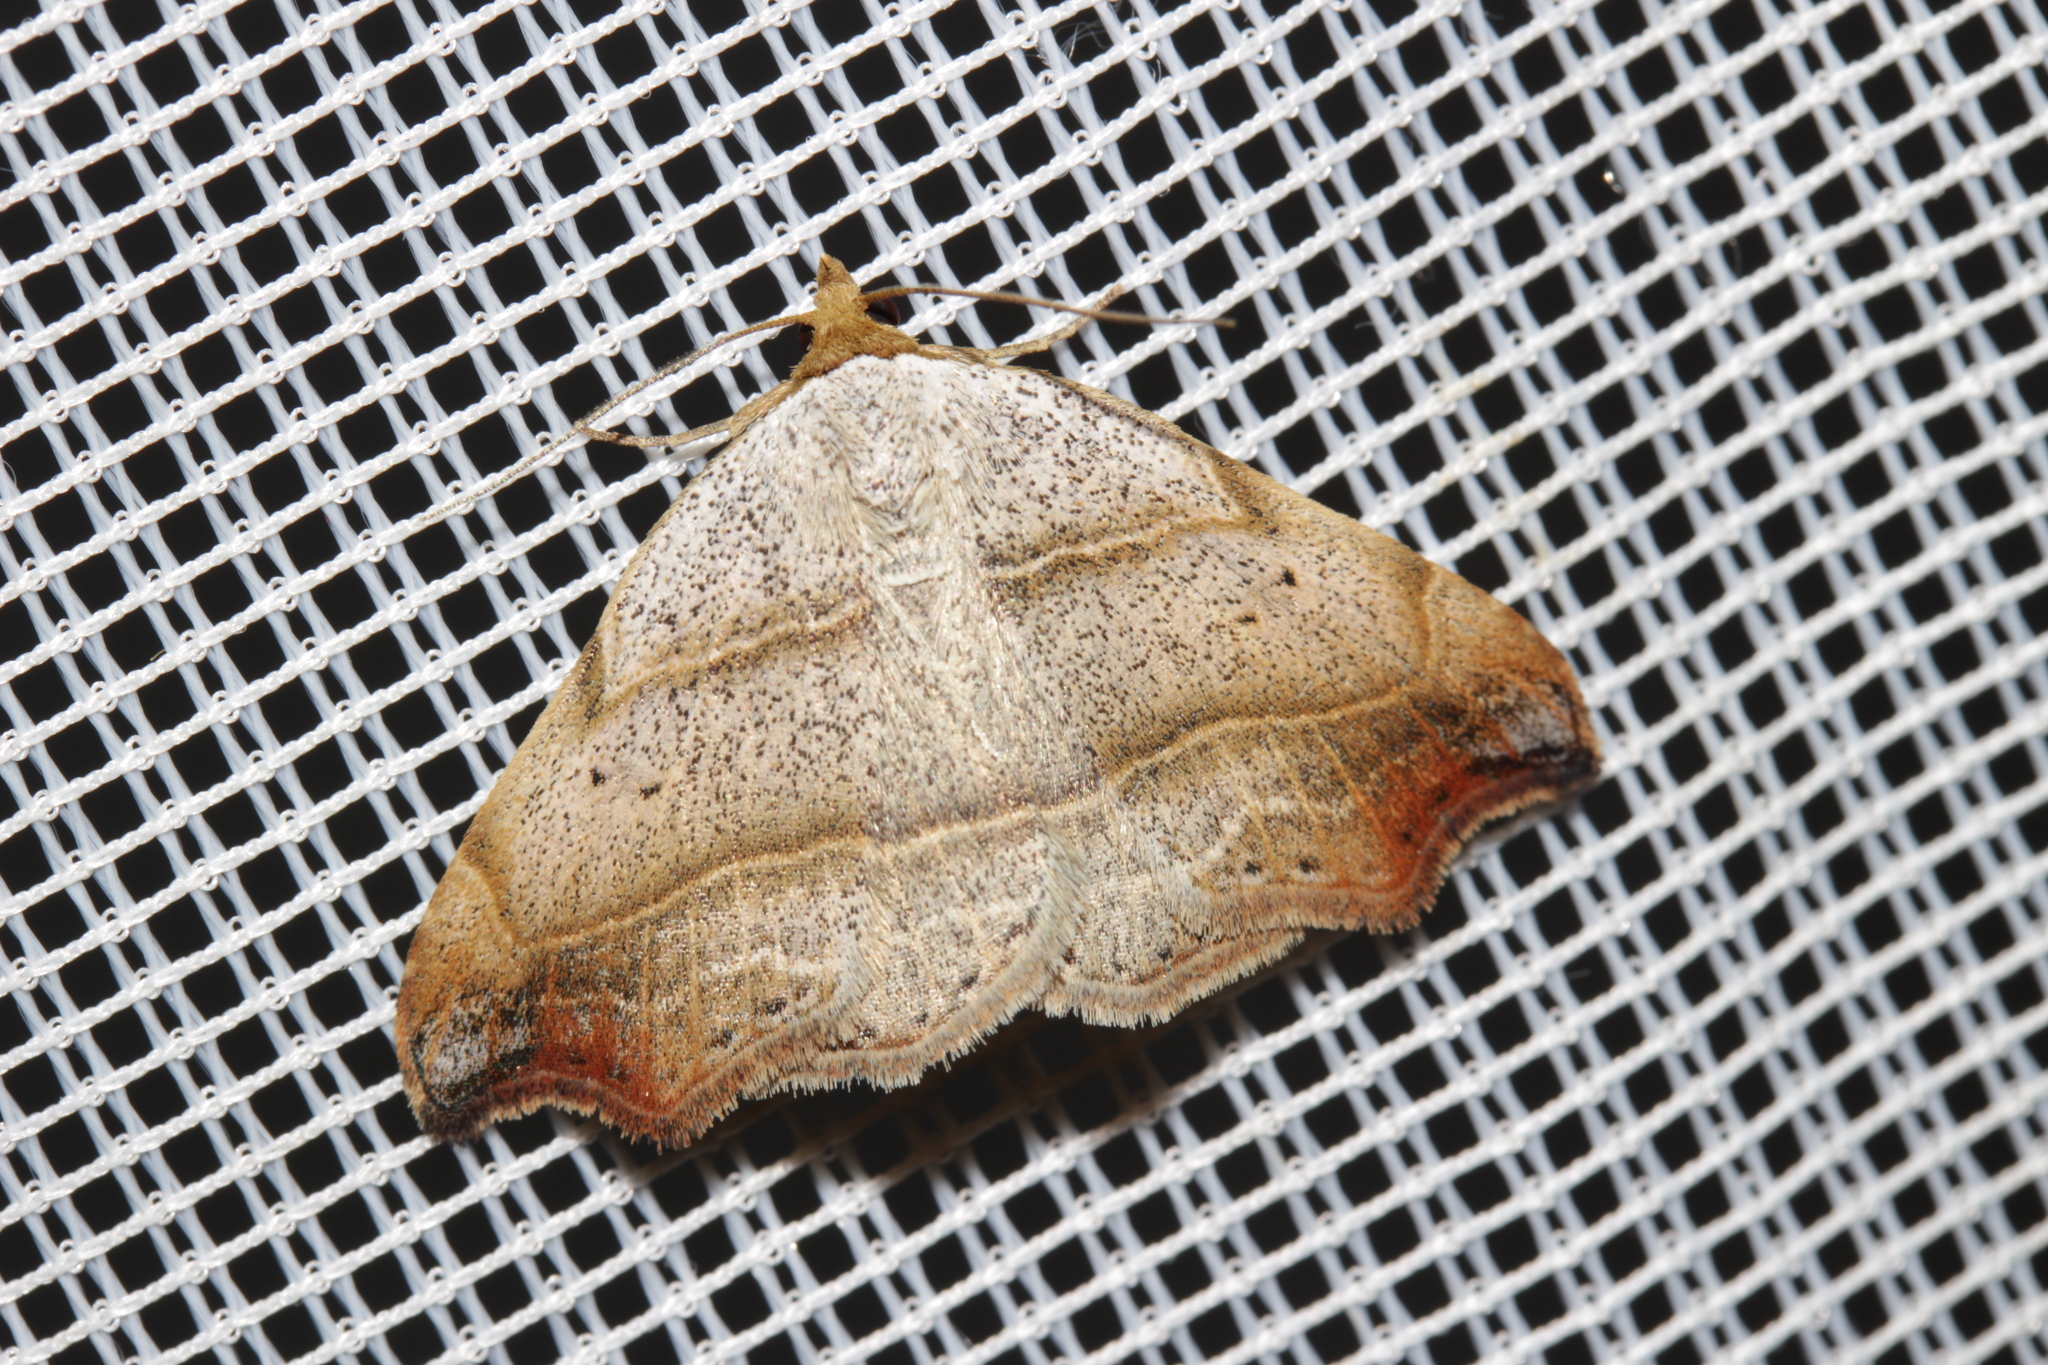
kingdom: Animalia
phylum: Arthropoda
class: Insecta
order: Lepidoptera
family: Erebidae
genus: Laspeyria
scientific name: Laspeyria flexula
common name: Beautiful hook-tip
